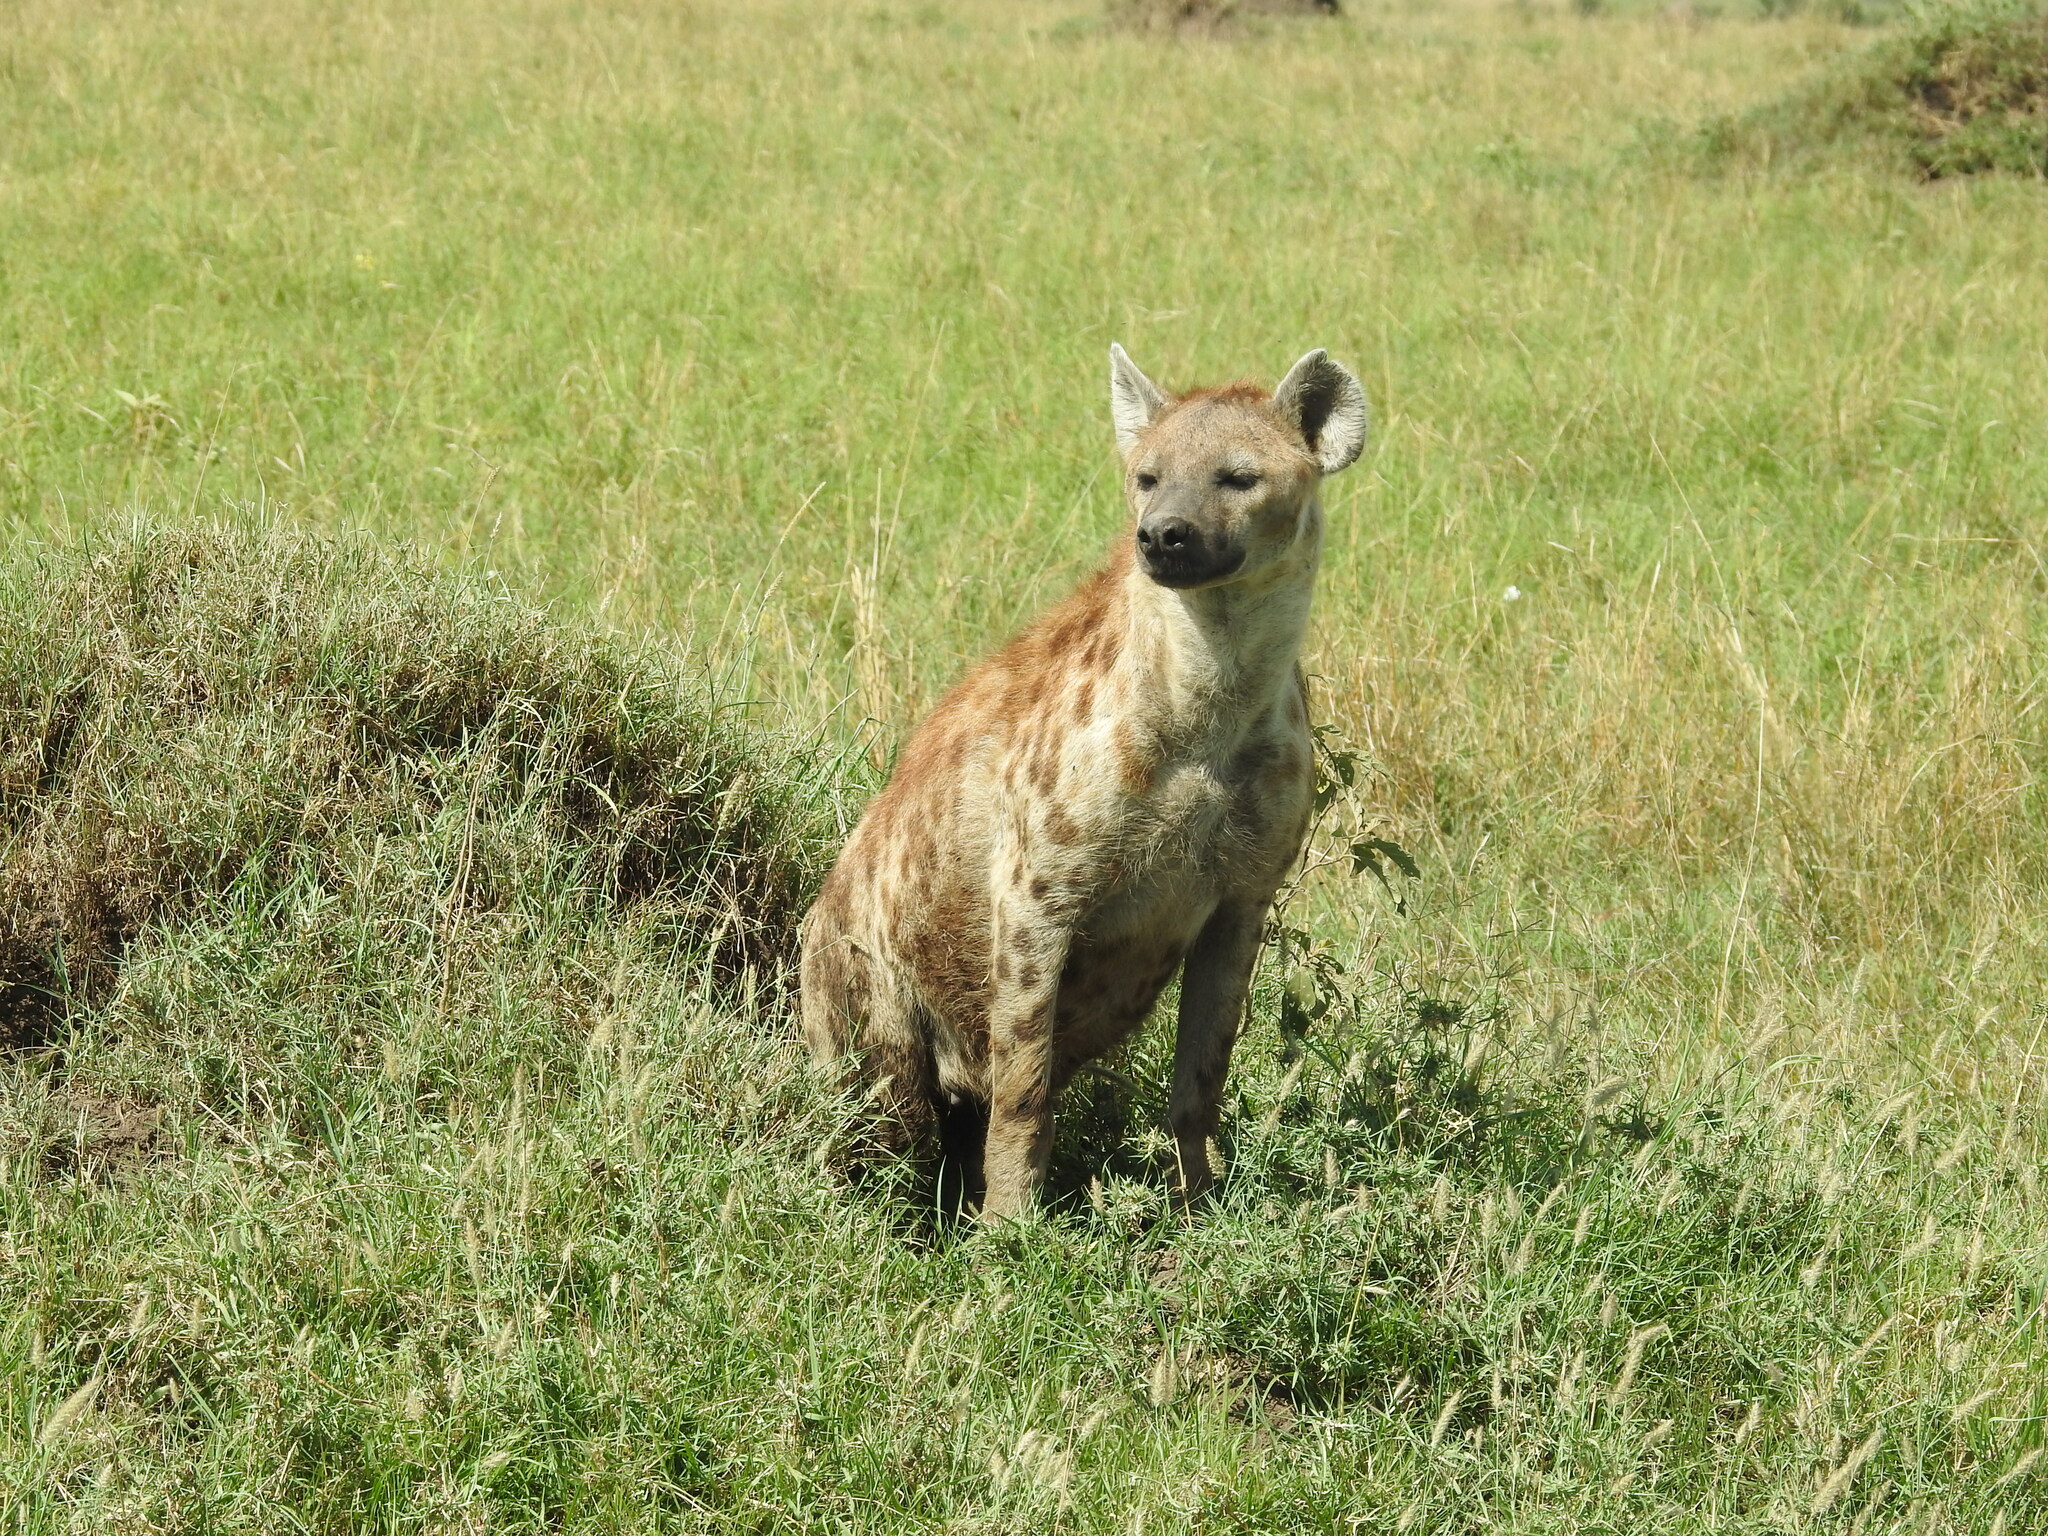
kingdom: Animalia
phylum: Chordata
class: Mammalia
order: Carnivora
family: Hyaenidae
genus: Crocuta
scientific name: Crocuta crocuta
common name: Spotted hyaena
